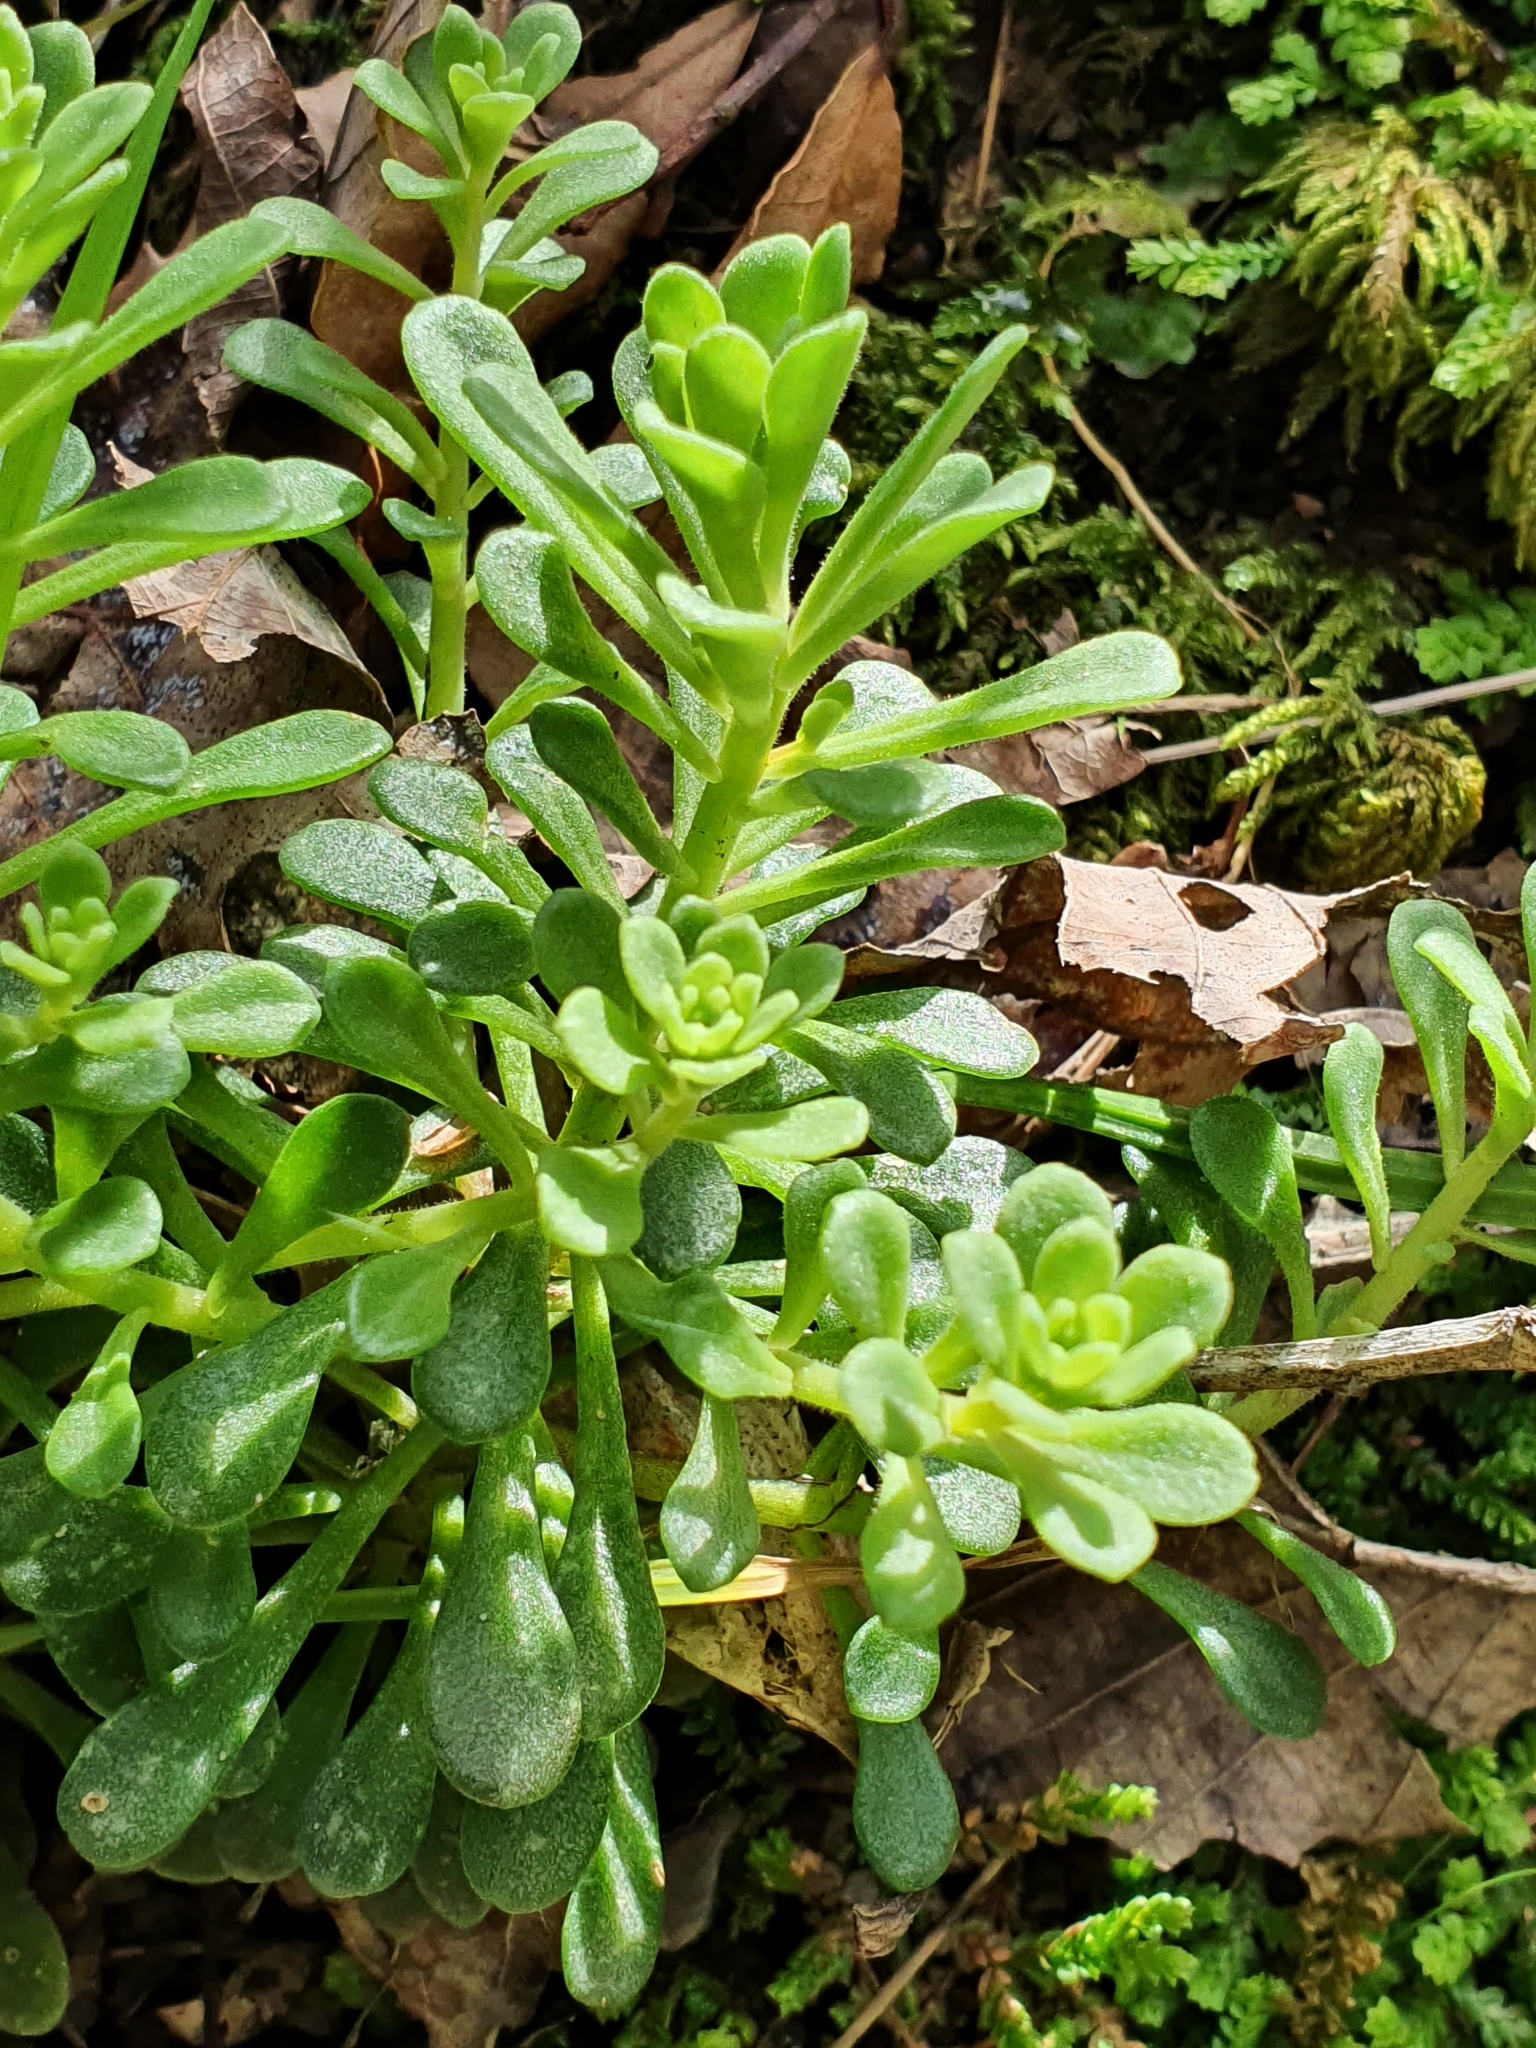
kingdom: Plantae
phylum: Tracheophyta
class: Magnoliopsida
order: Saxifragales
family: Crassulaceae
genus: Sedum
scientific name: Sedum cepaea
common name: Pink stonecrop
